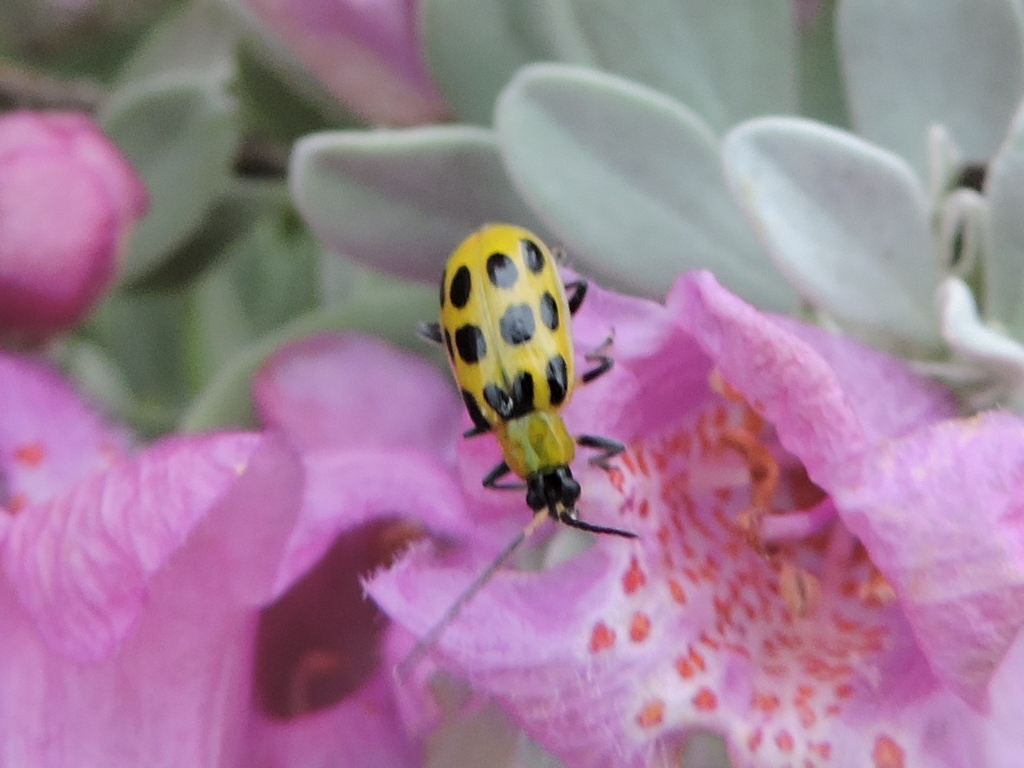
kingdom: Animalia
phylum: Arthropoda
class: Insecta
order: Coleoptera
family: Chrysomelidae
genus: Diabrotica
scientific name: Diabrotica undecimpunctata
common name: Spotted cucumber beetle
